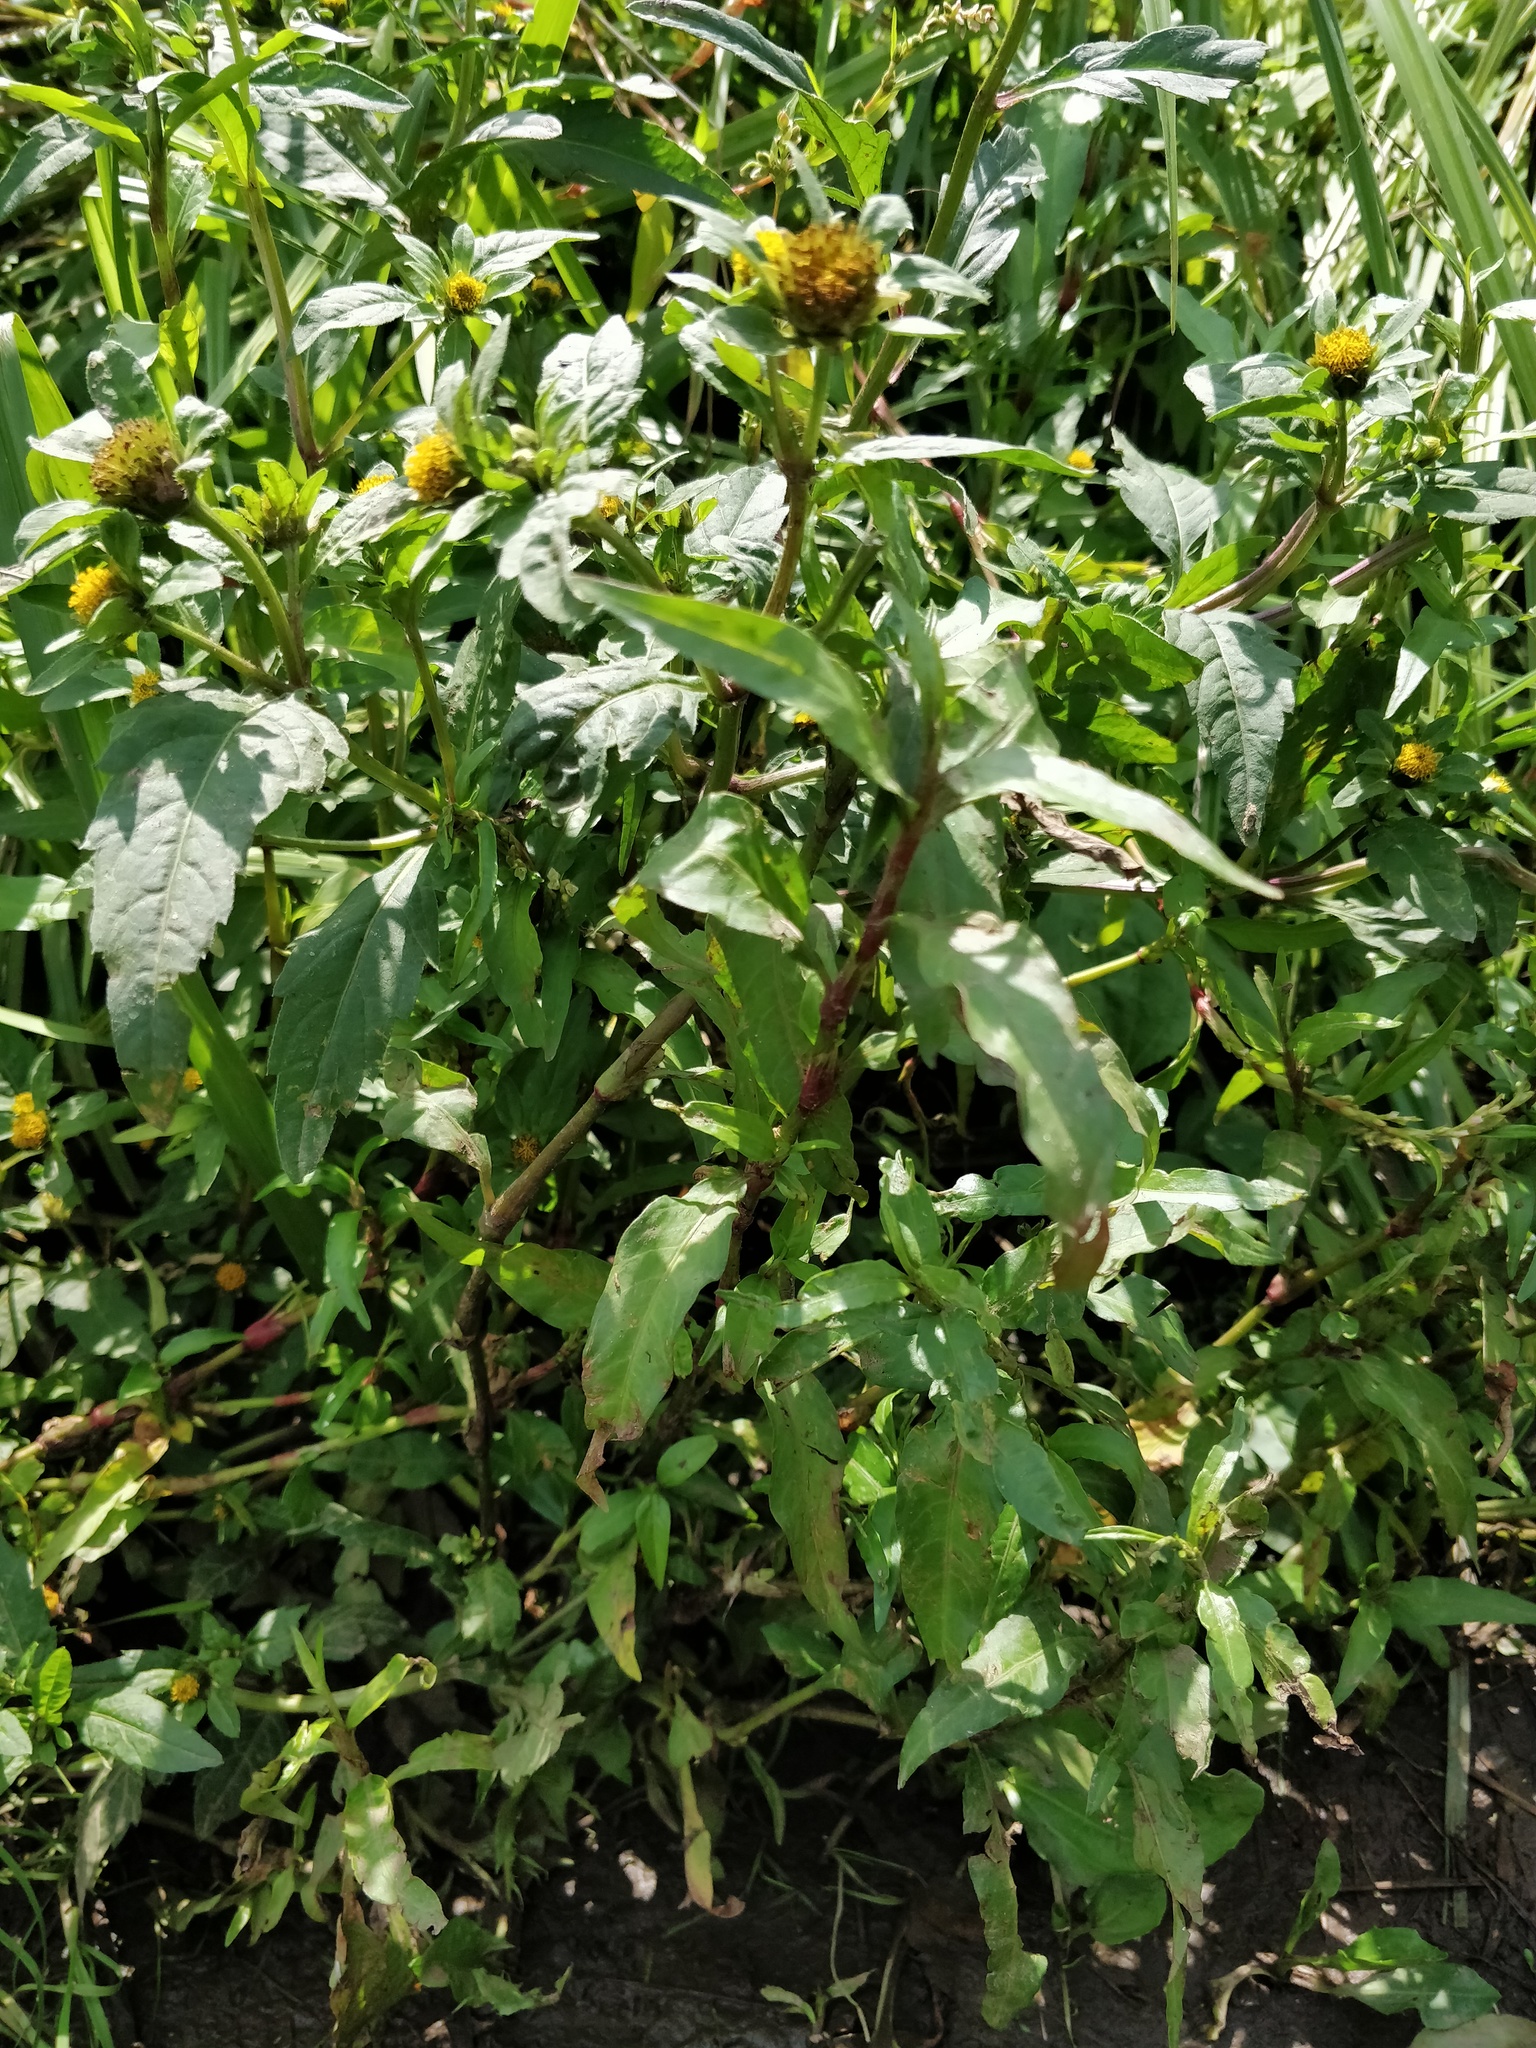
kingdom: Plantae
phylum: Tracheophyta
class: Magnoliopsida
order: Asterales
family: Asteraceae
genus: Bidens
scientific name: Bidens tripartita
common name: Trifid bur-marigold
